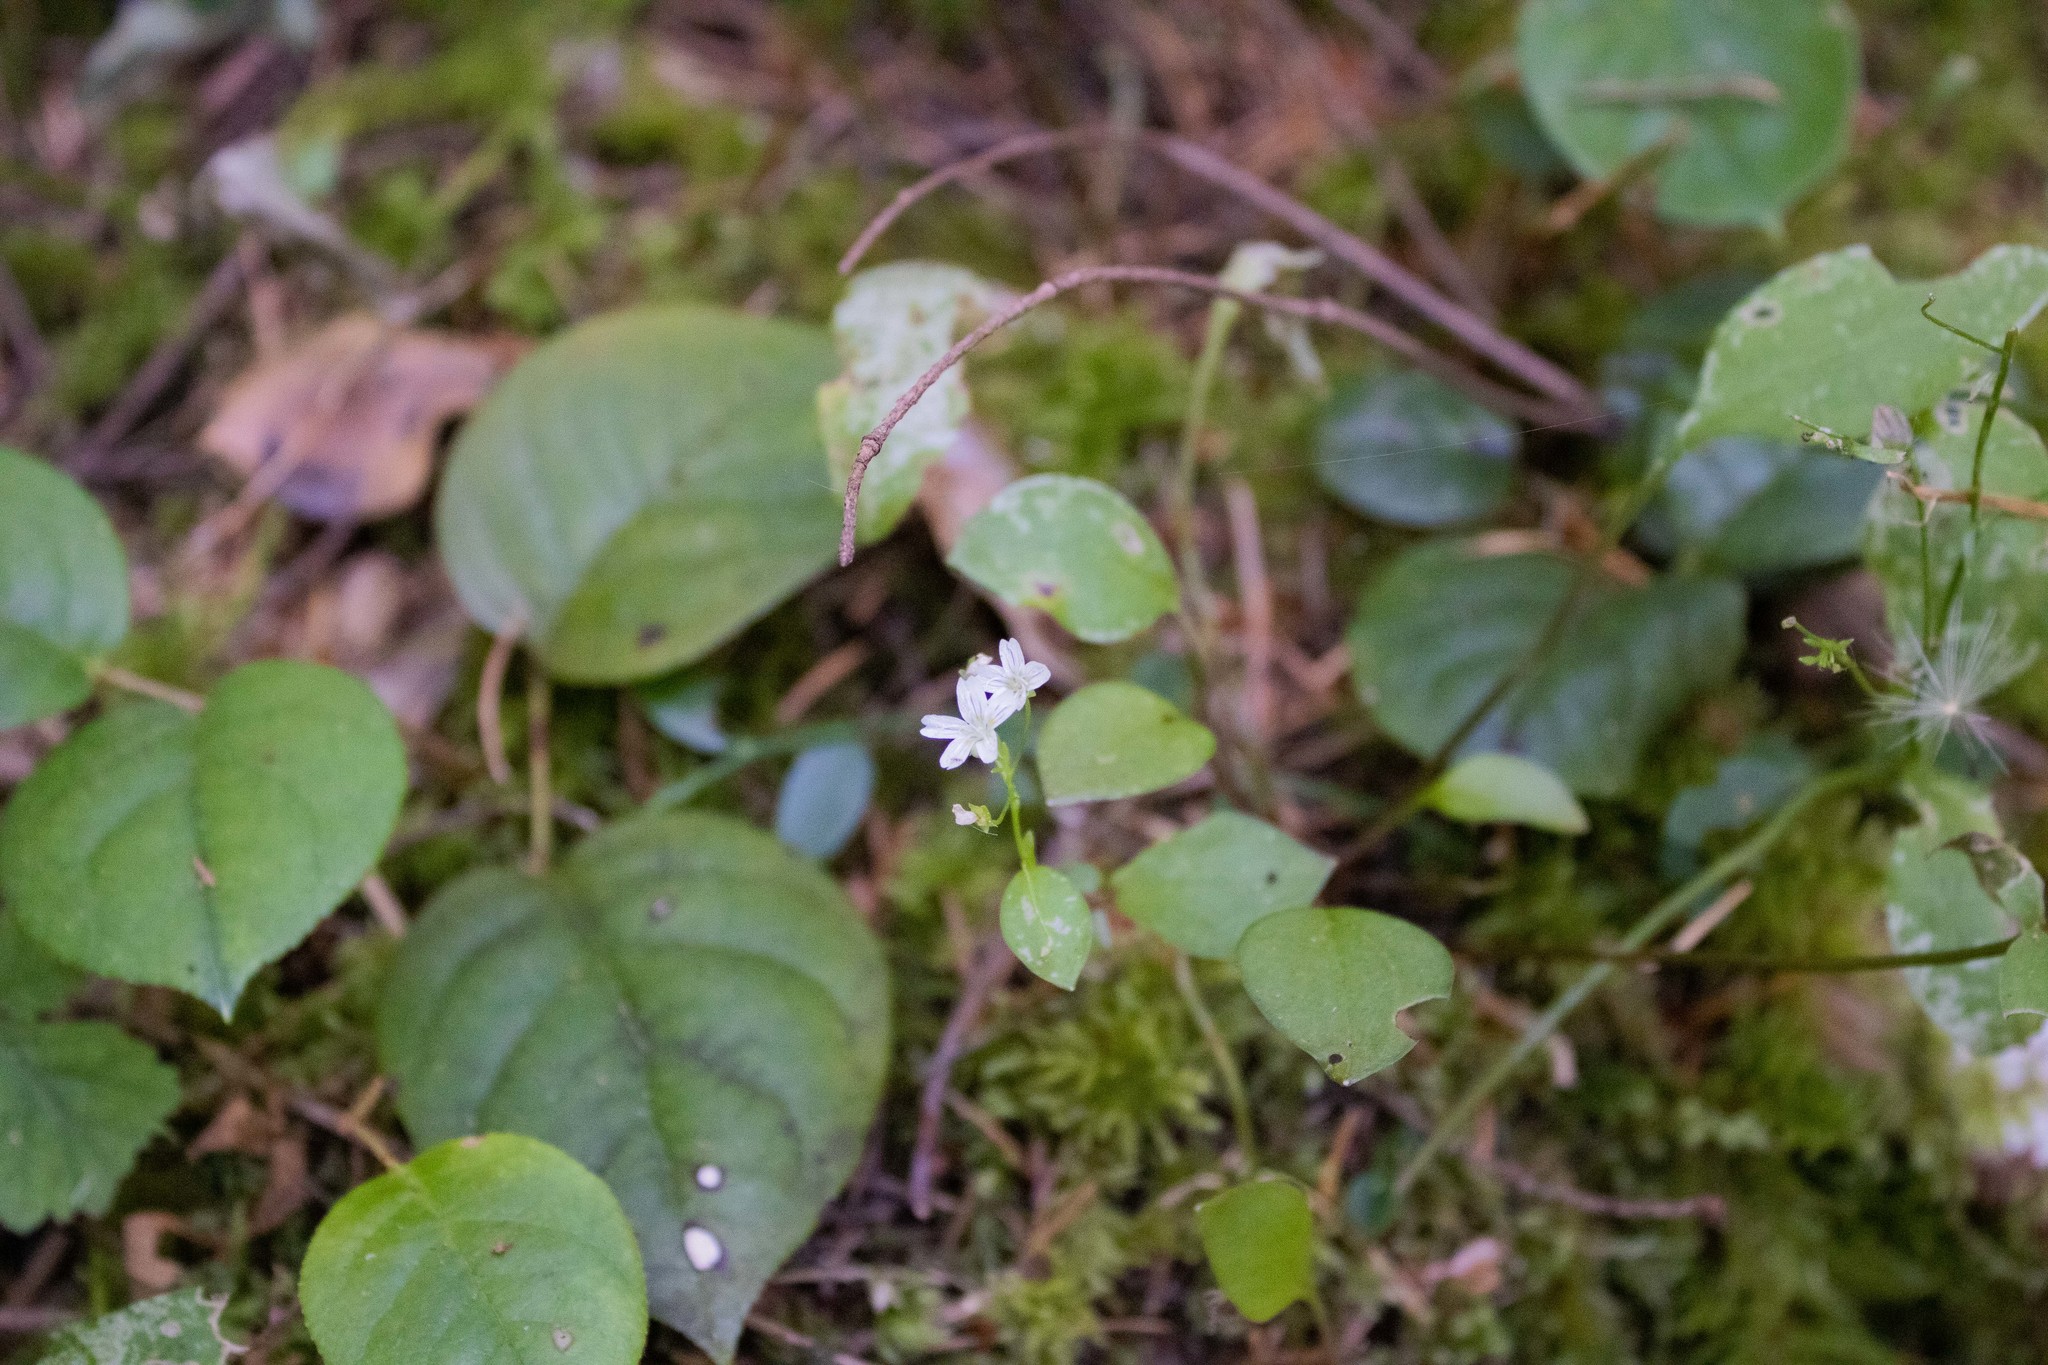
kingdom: Plantae
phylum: Tracheophyta
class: Magnoliopsida
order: Caryophyllales
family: Montiaceae
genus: Claytonia
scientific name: Claytonia sibirica
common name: Pink purslane
